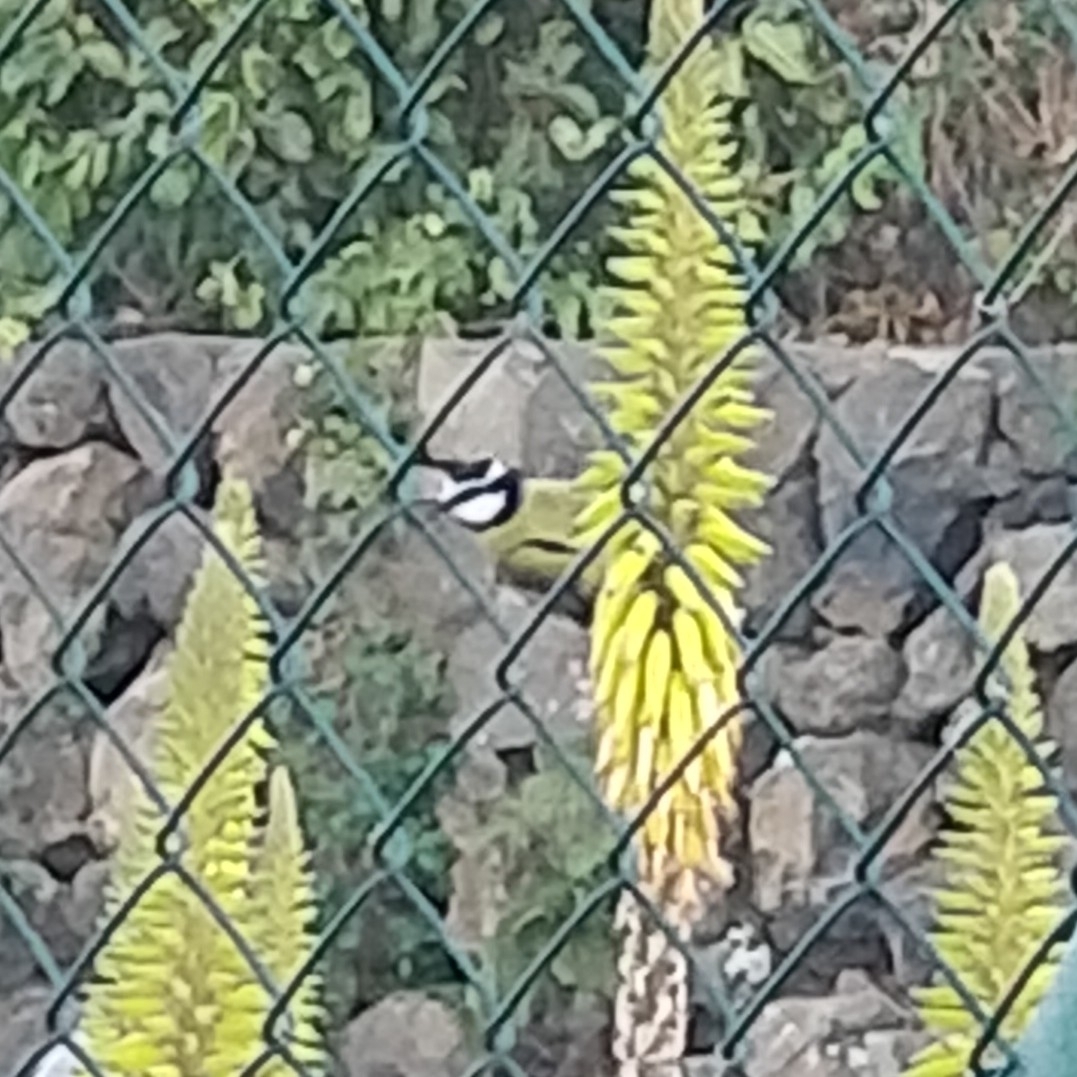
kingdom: Animalia
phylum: Chordata
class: Aves
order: Passeriformes
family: Paridae
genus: Cyanistes
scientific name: Cyanistes teneriffae
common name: African blue tit
